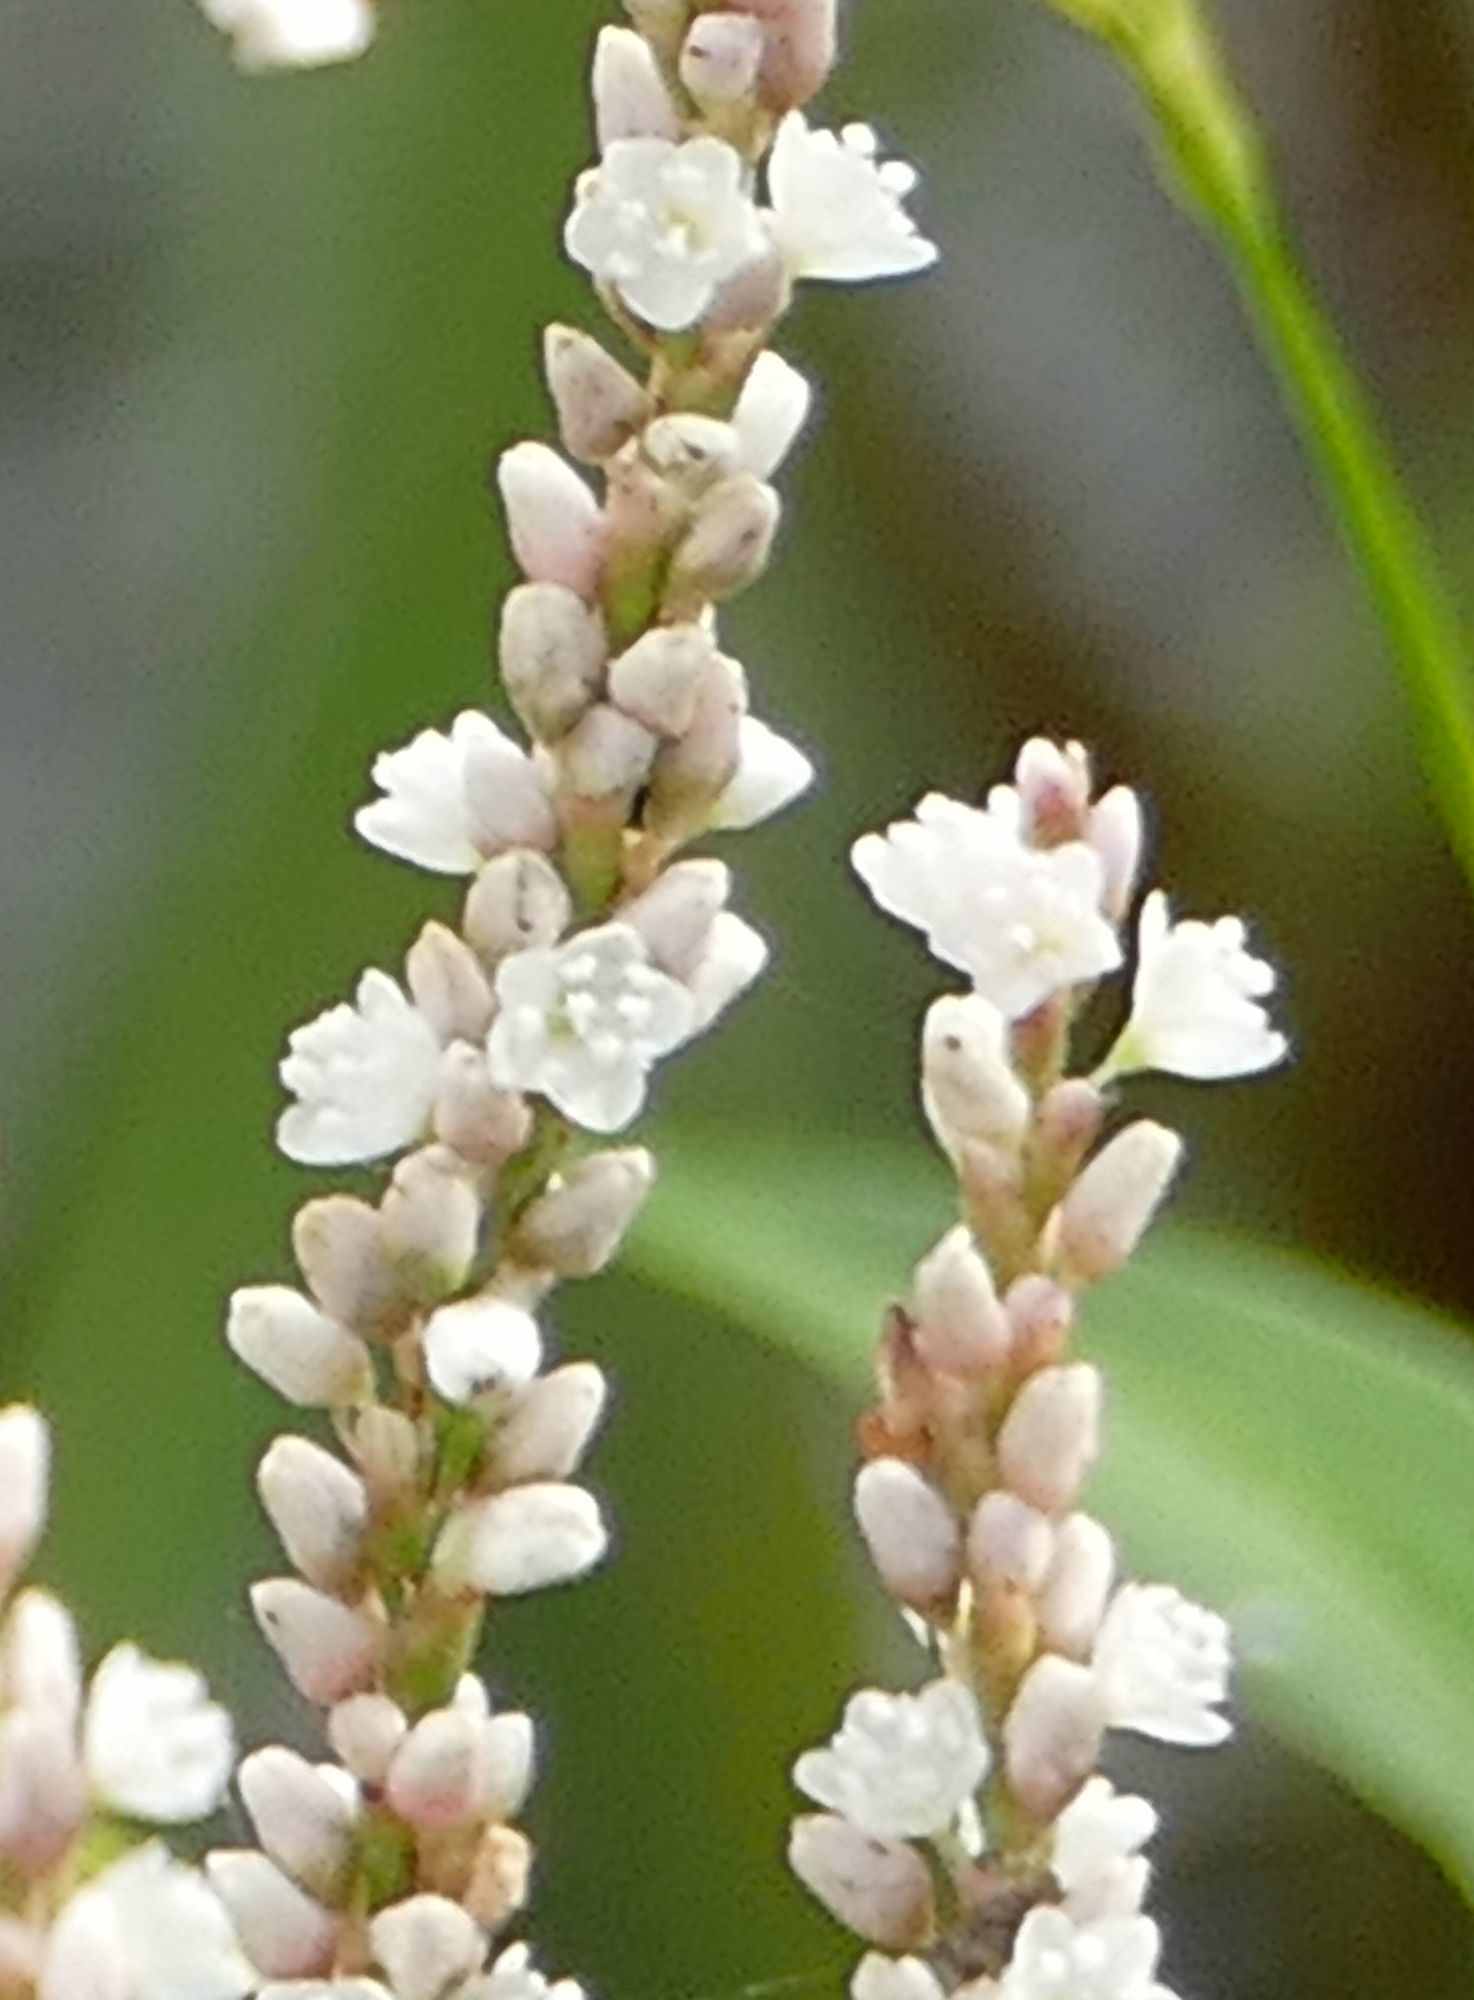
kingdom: Plantae
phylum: Tracheophyta
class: Magnoliopsida
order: Caryophyllales
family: Polygonaceae
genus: Persicaria
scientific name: Persicaria hydropiperoides
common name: Swamp smartweed
